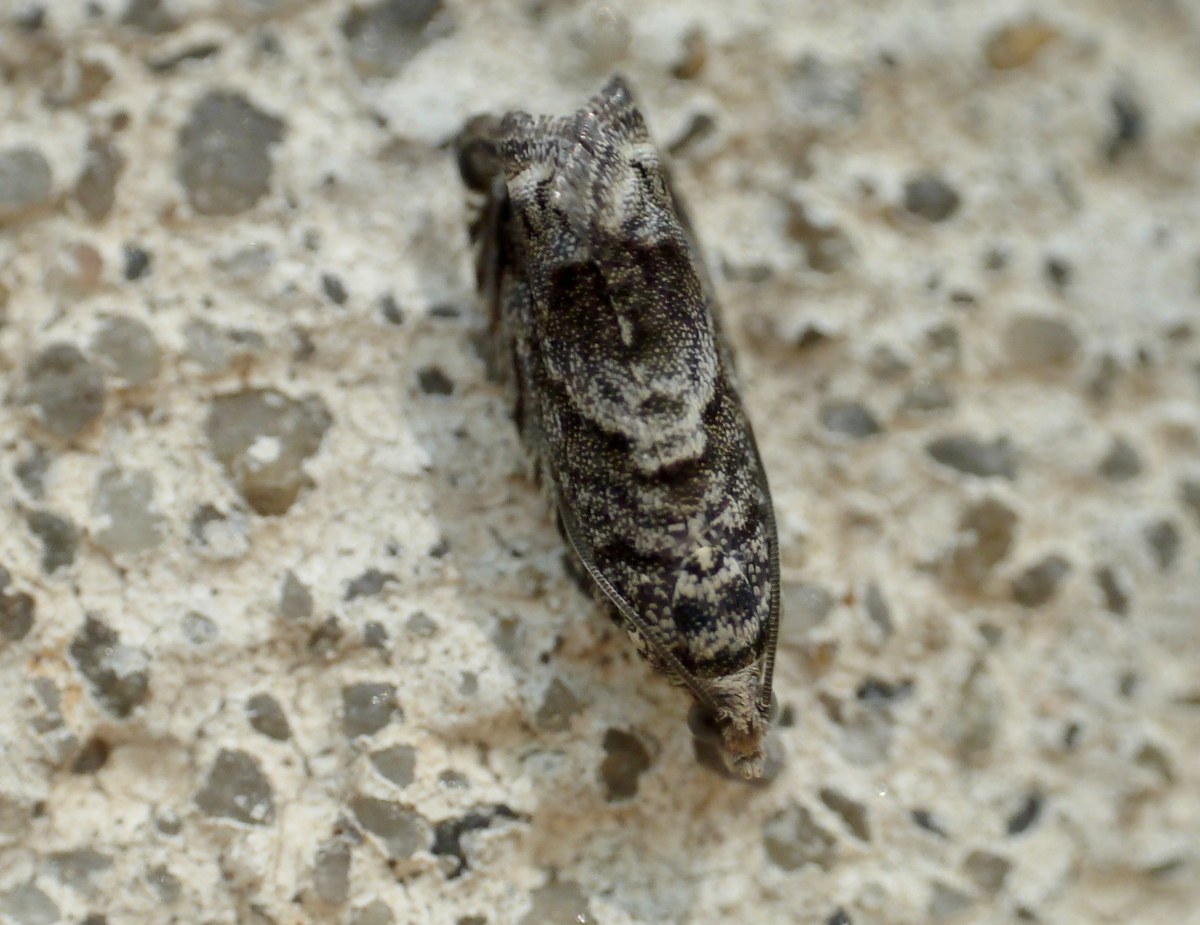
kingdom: Animalia
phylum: Arthropoda
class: Insecta
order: Lepidoptera
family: Tortricidae
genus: Cydia
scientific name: Cydia fagiglandana
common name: Large beech piercer
